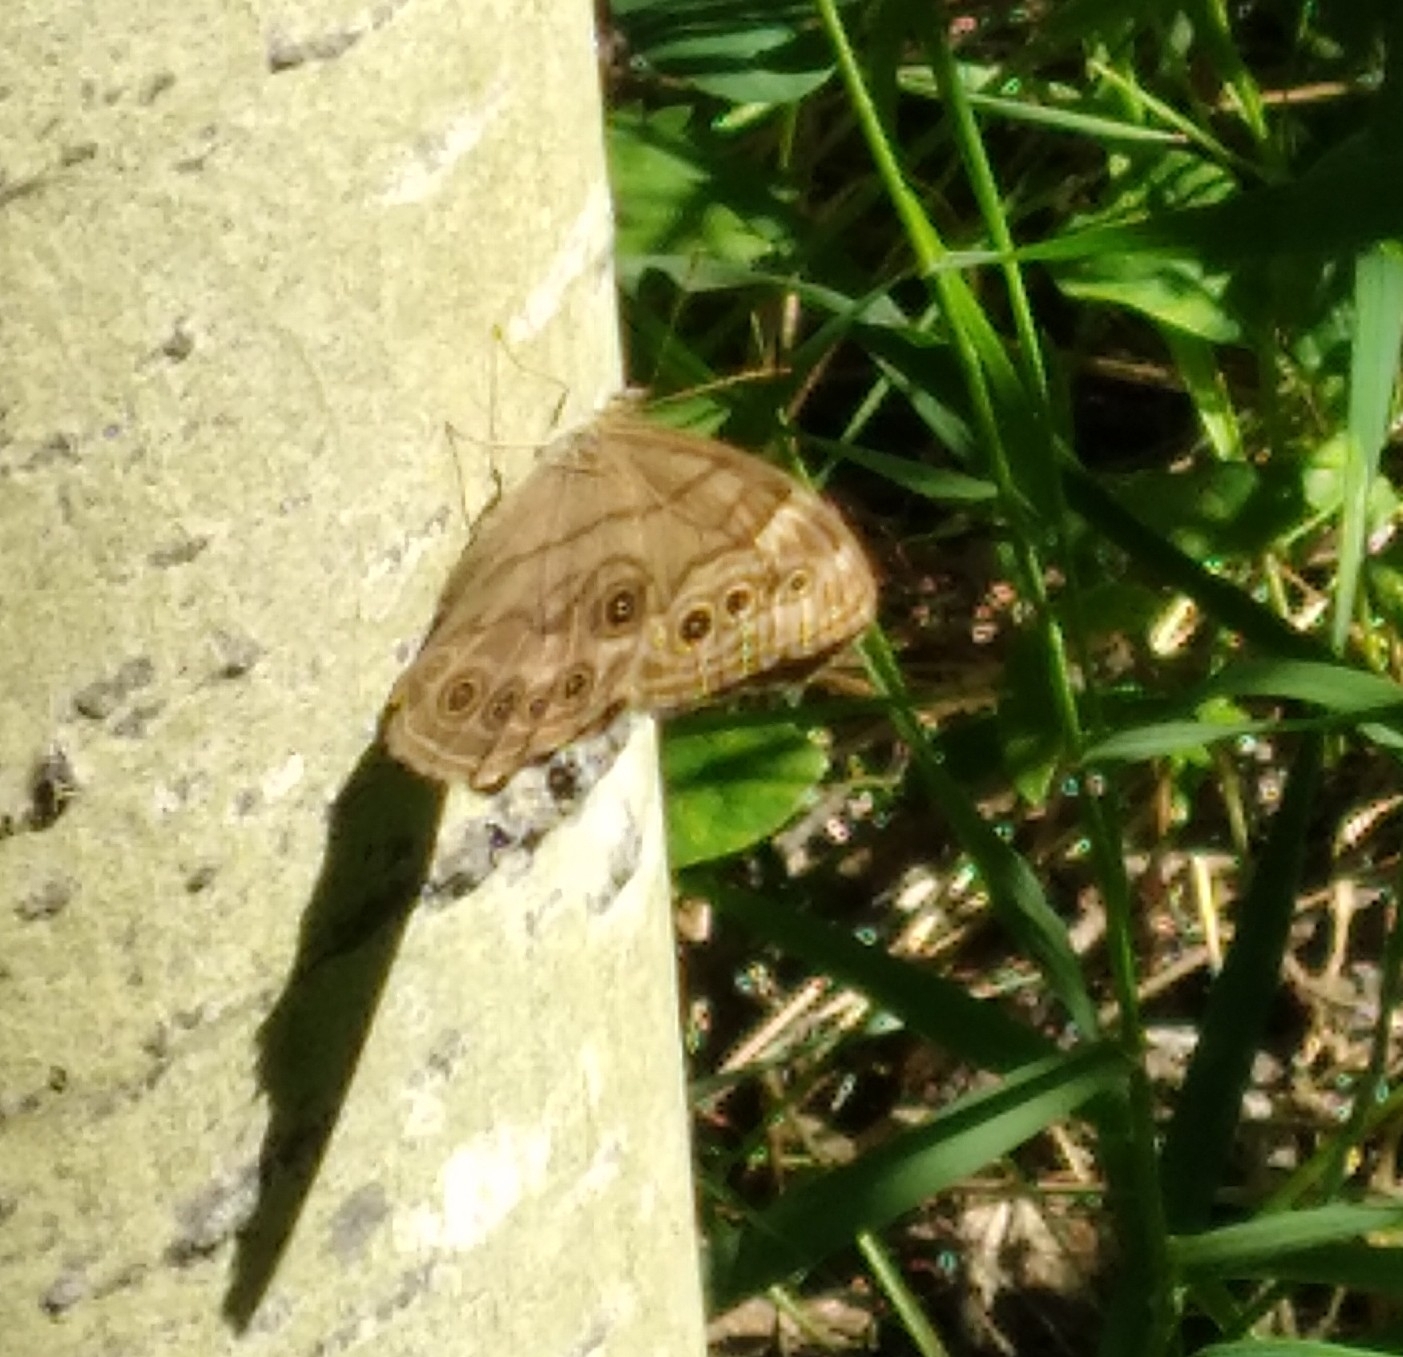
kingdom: Animalia
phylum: Arthropoda
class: Insecta
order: Lepidoptera
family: Nymphalidae
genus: Lethe
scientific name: Lethe anthedon
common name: Northern pearly-eye
